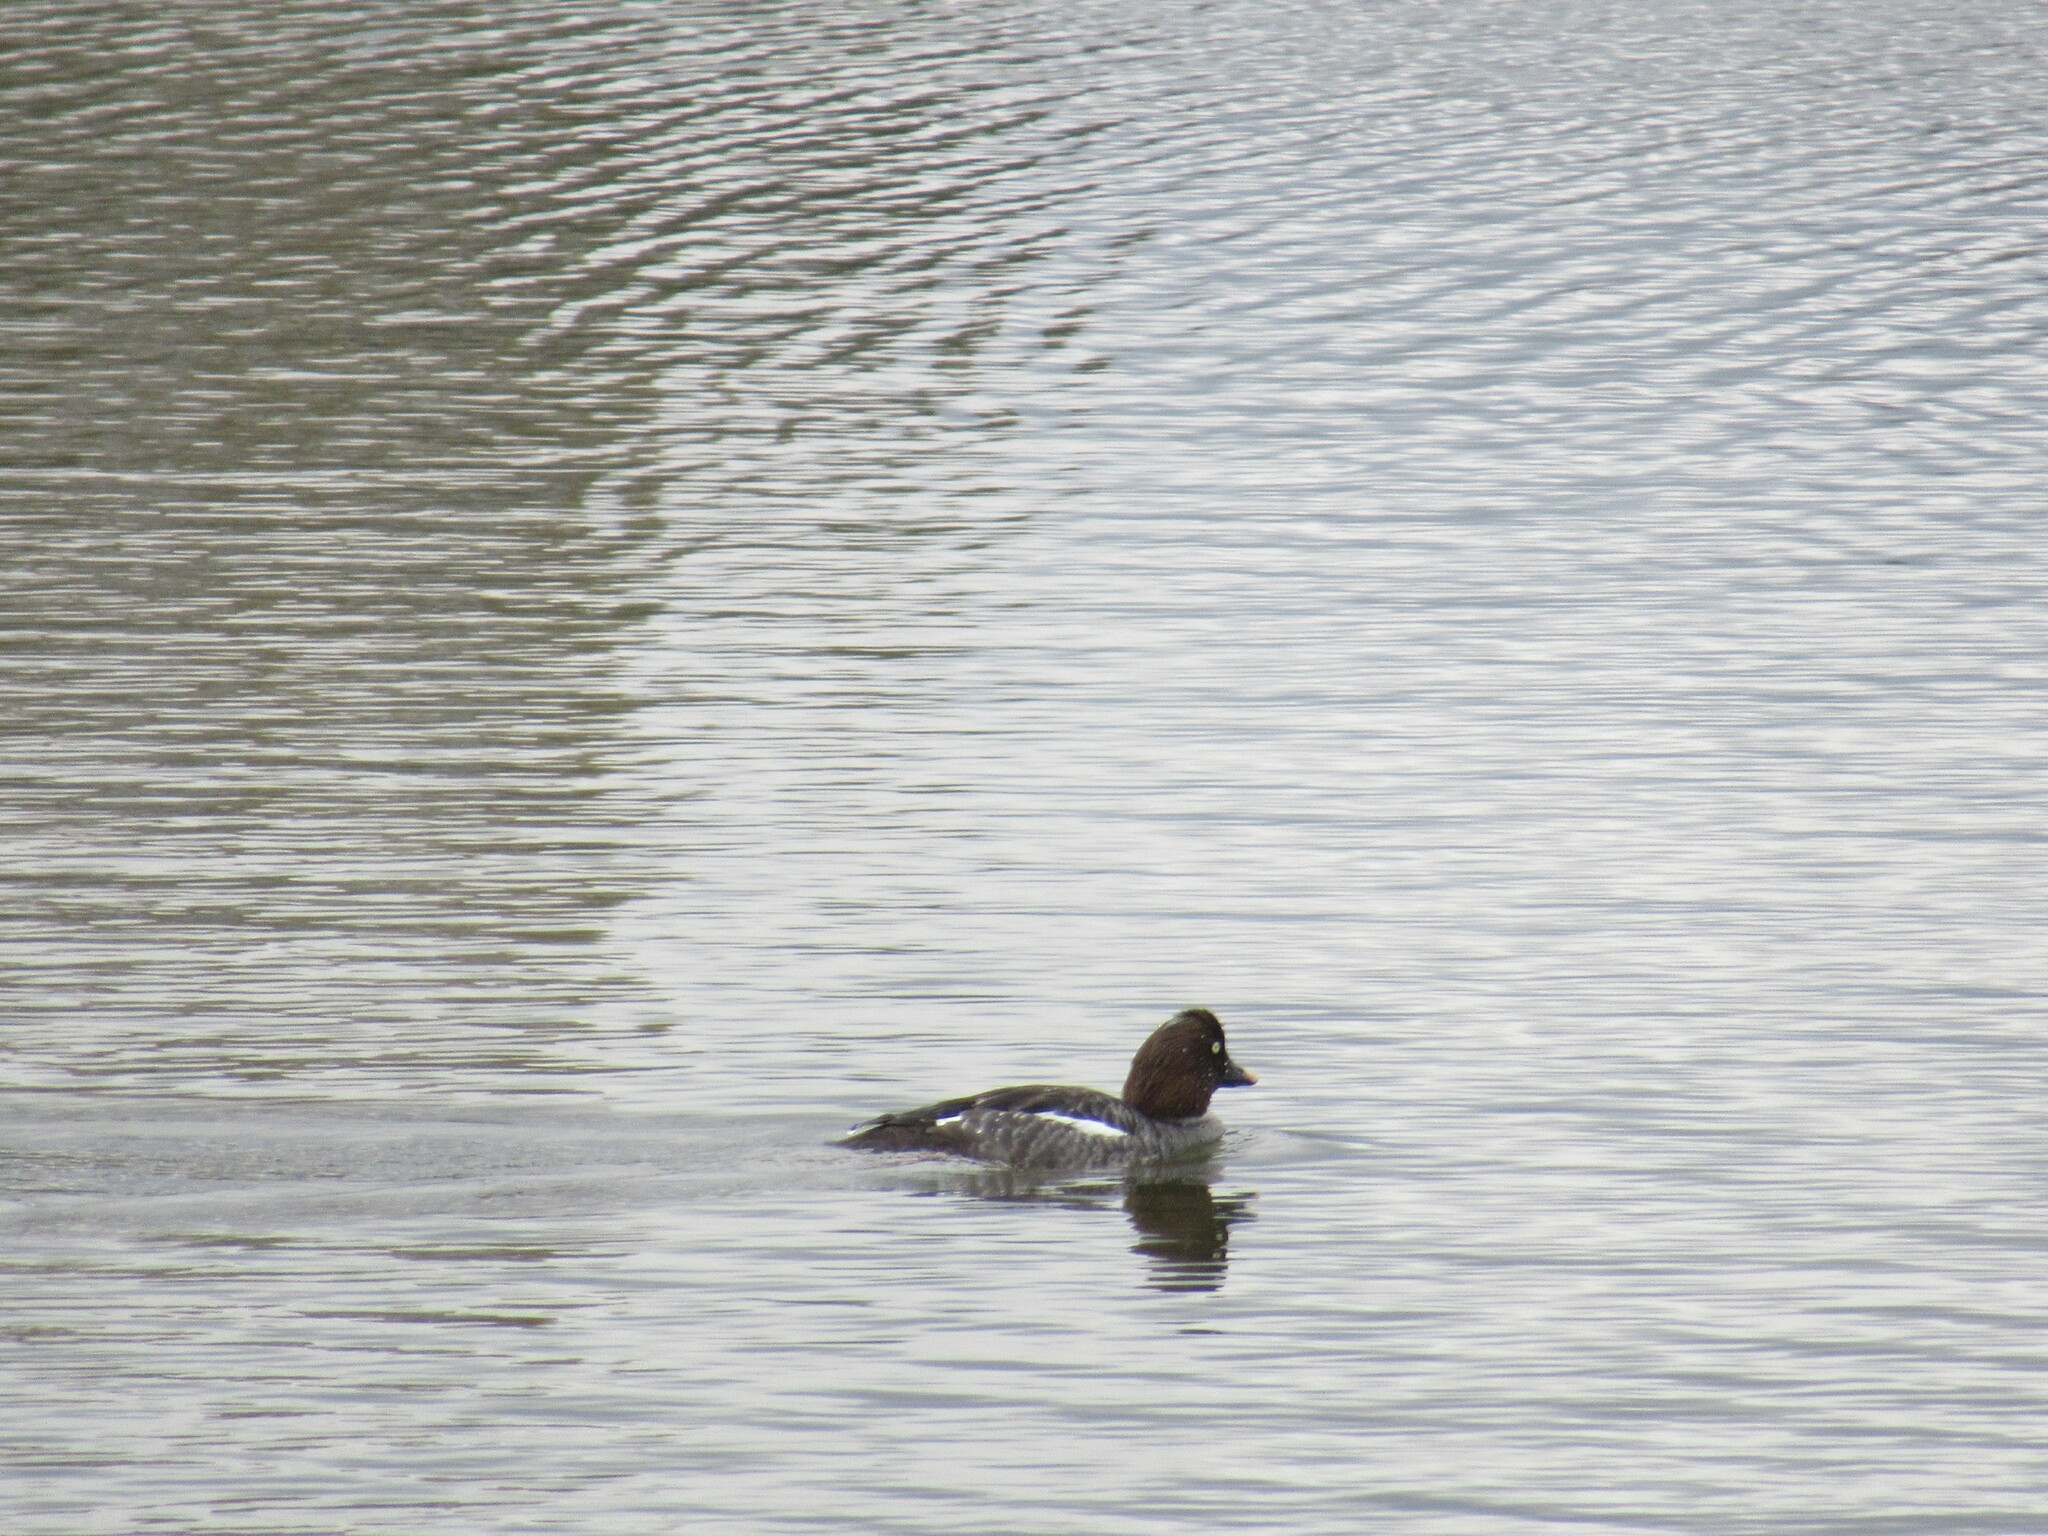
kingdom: Animalia
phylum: Chordata
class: Aves
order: Anseriformes
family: Anatidae
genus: Bucephala
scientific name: Bucephala clangula
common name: Common goldeneye
